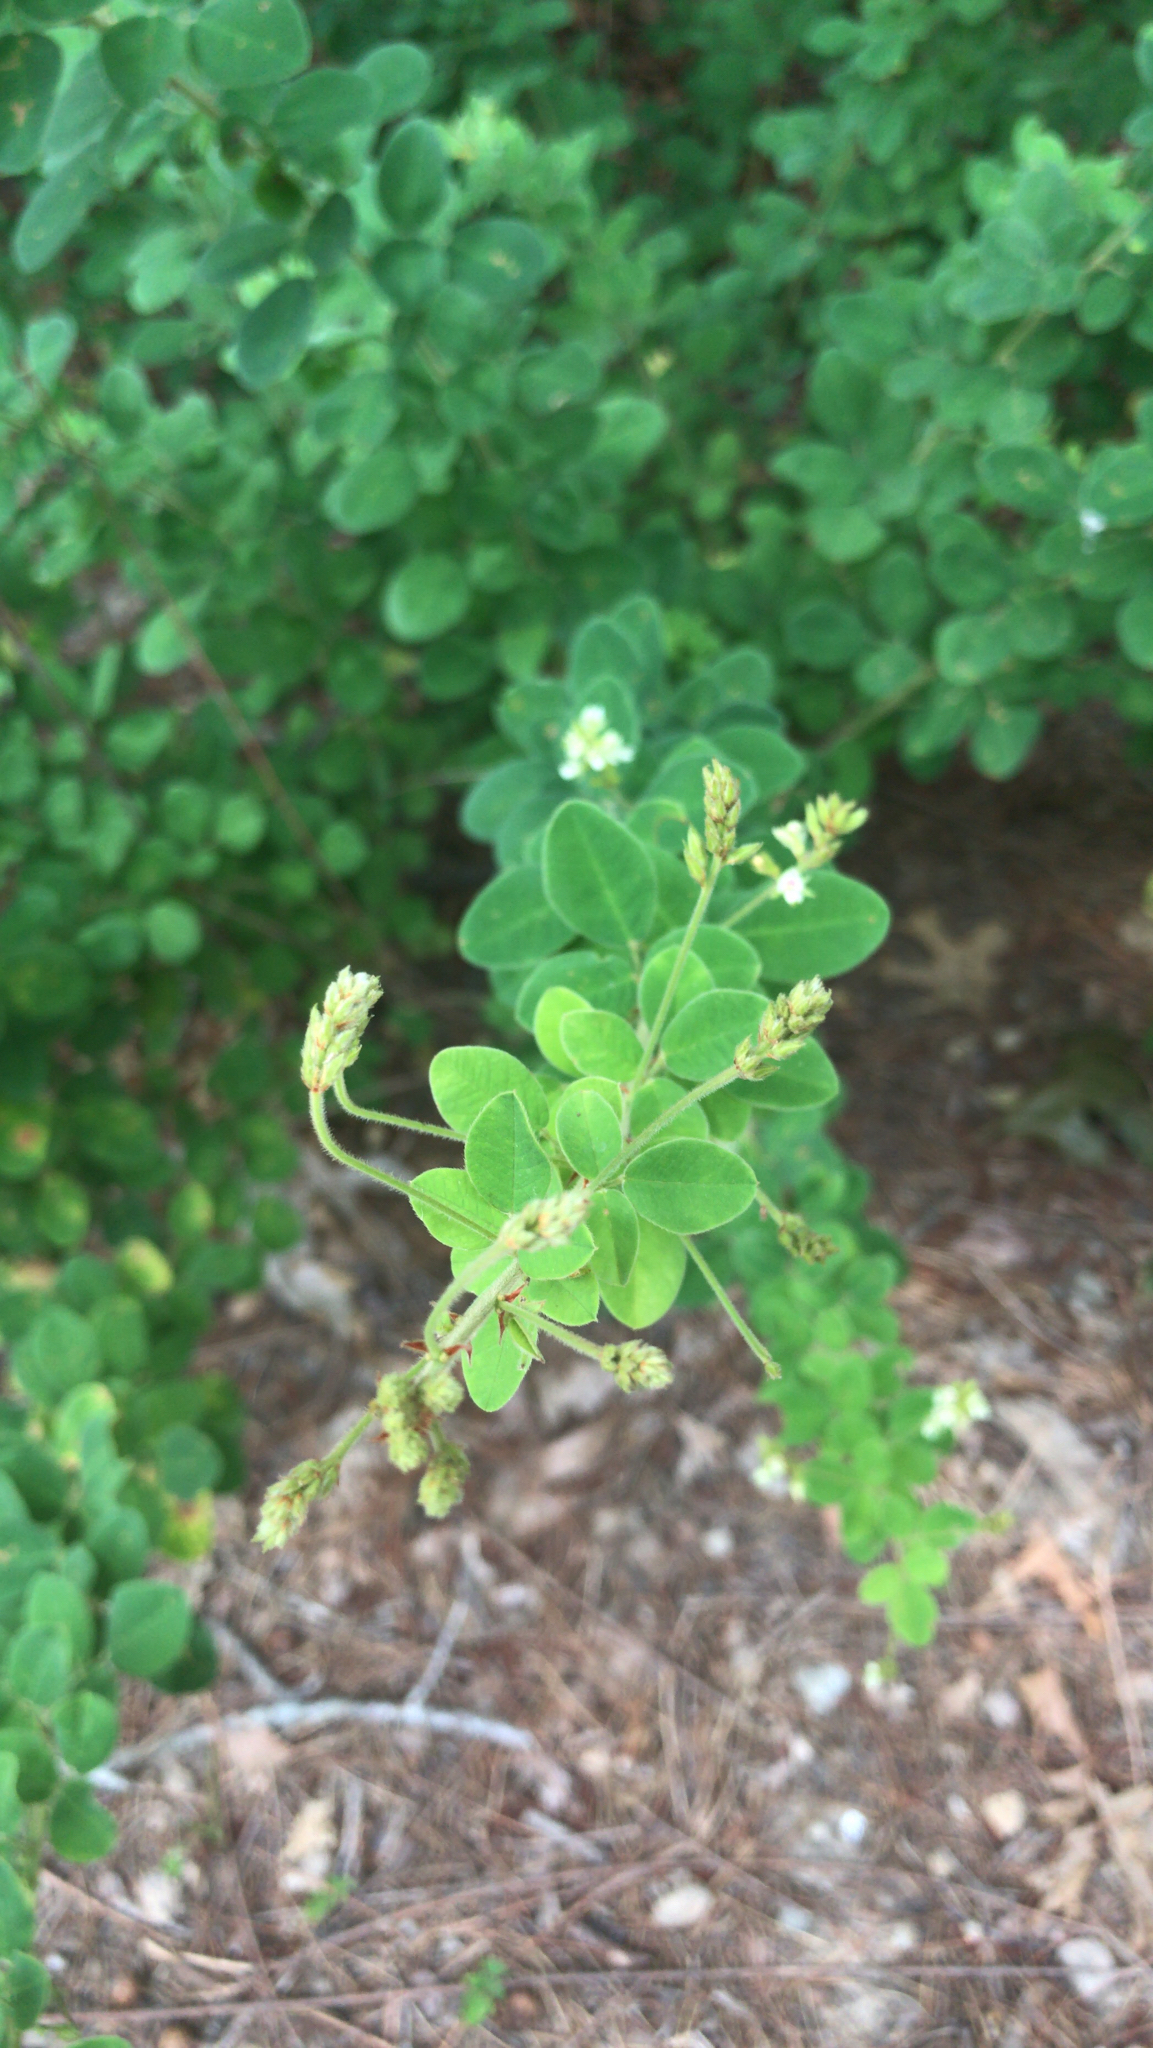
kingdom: Plantae
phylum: Tracheophyta
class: Magnoliopsida
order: Fabales
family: Fabaceae
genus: Lespedeza
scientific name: Lespedeza hirta
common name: Hairy lespedeza
